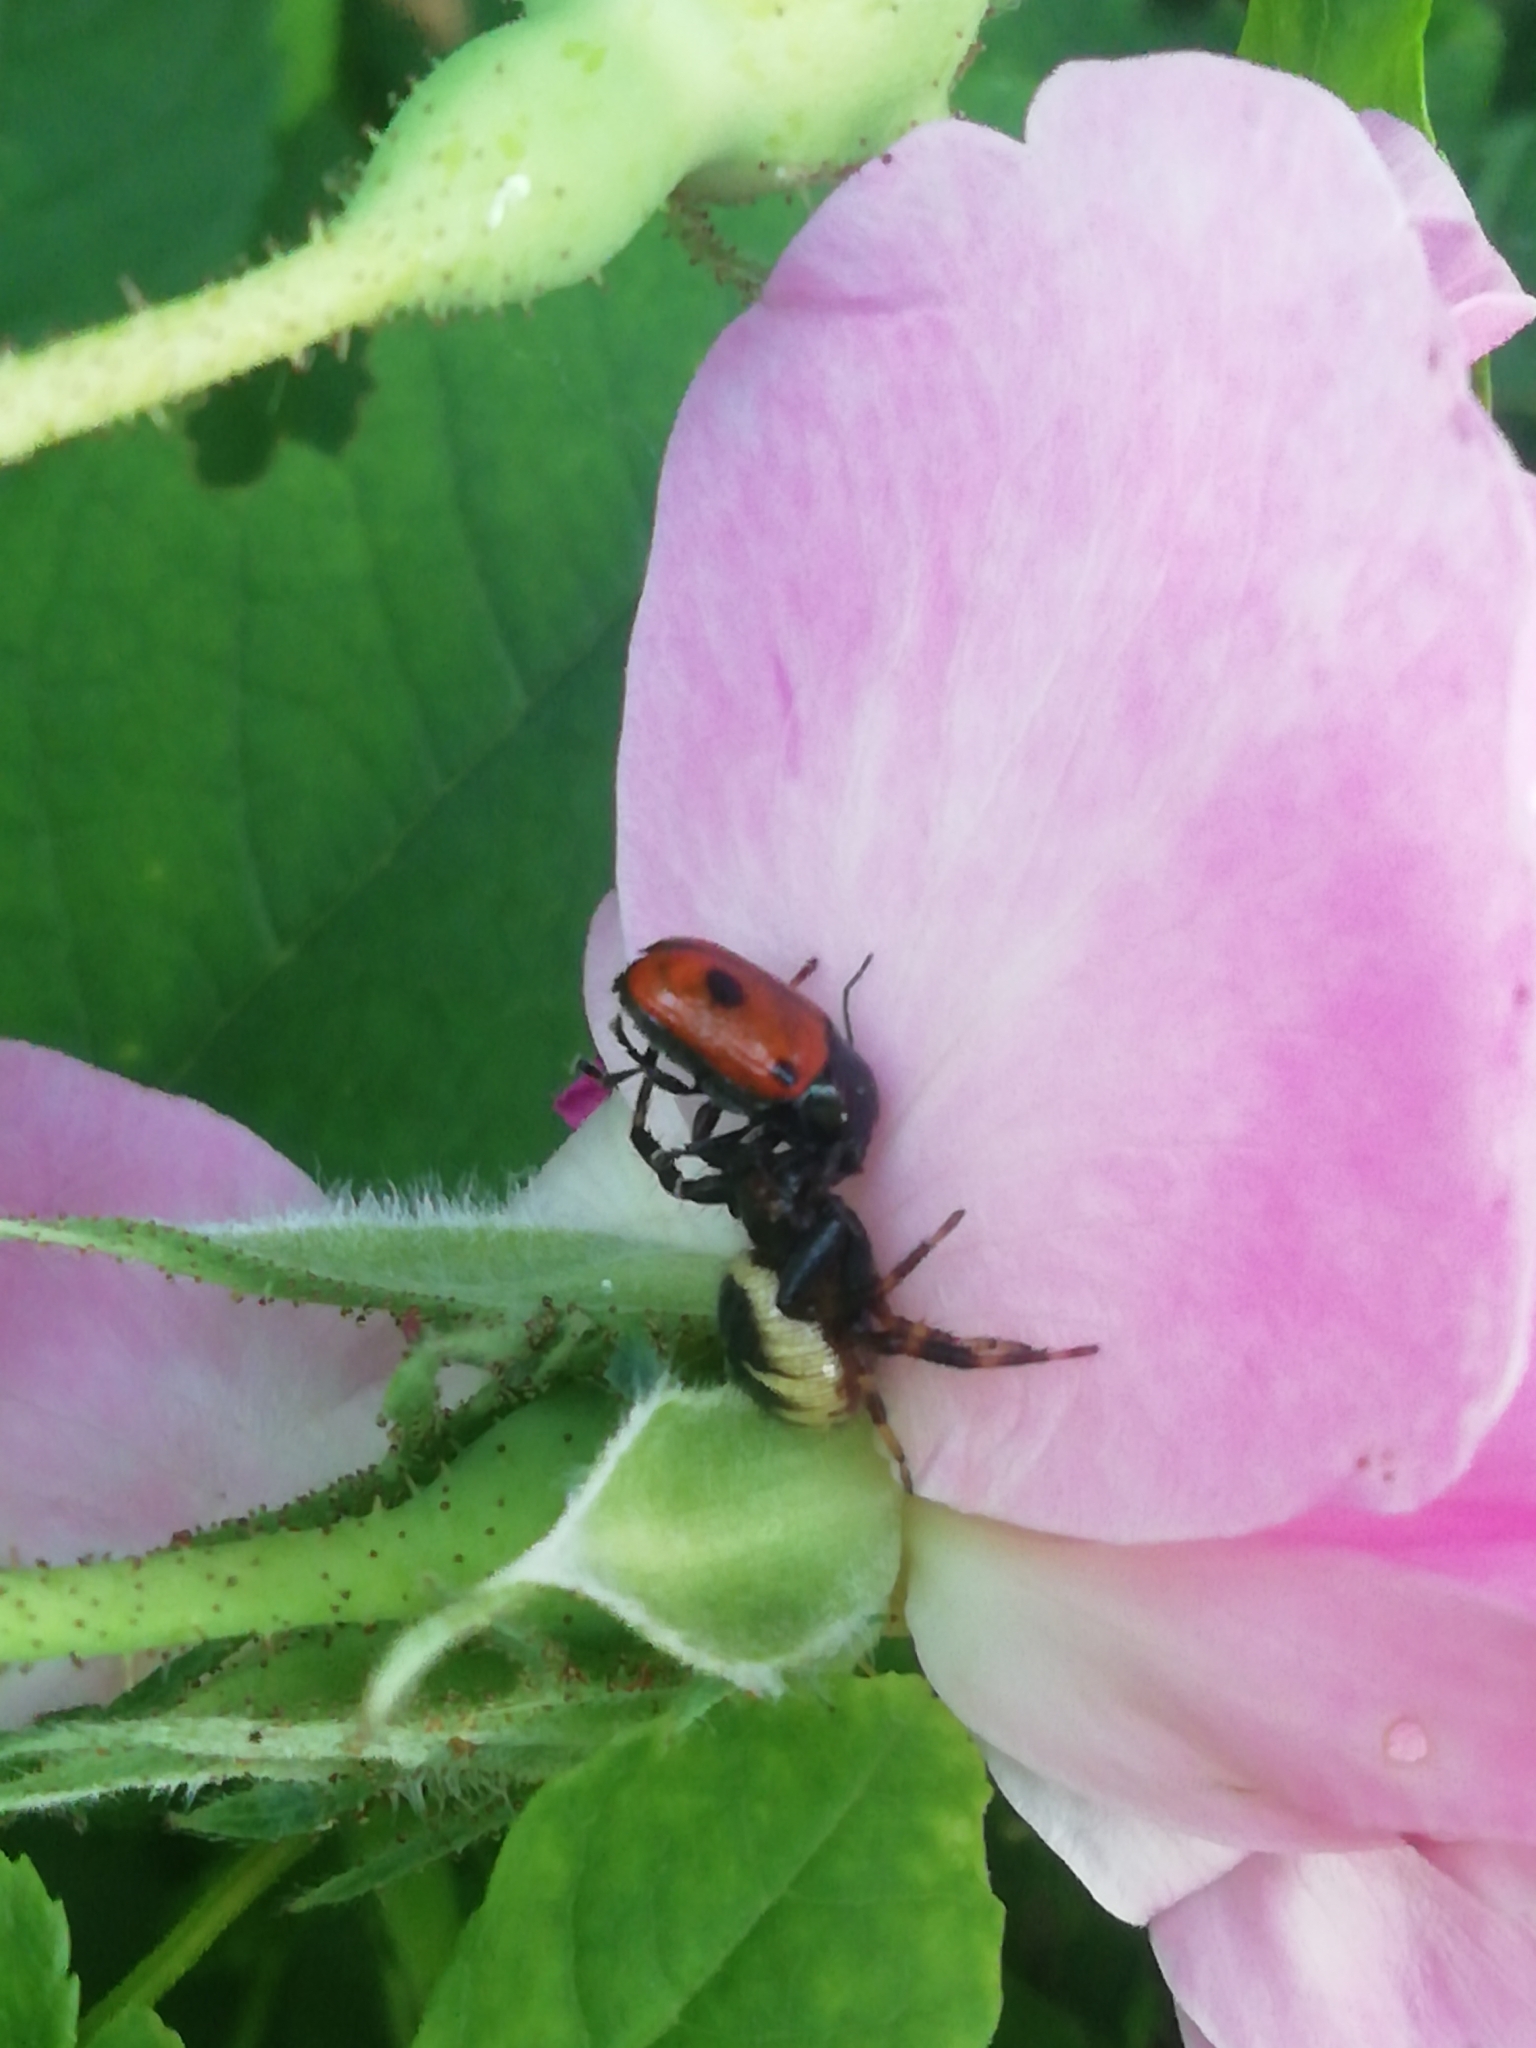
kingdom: Animalia
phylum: Arthropoda
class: Arachnida
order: Araneae
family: Thomisidae
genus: Synema
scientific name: Synema globosum
